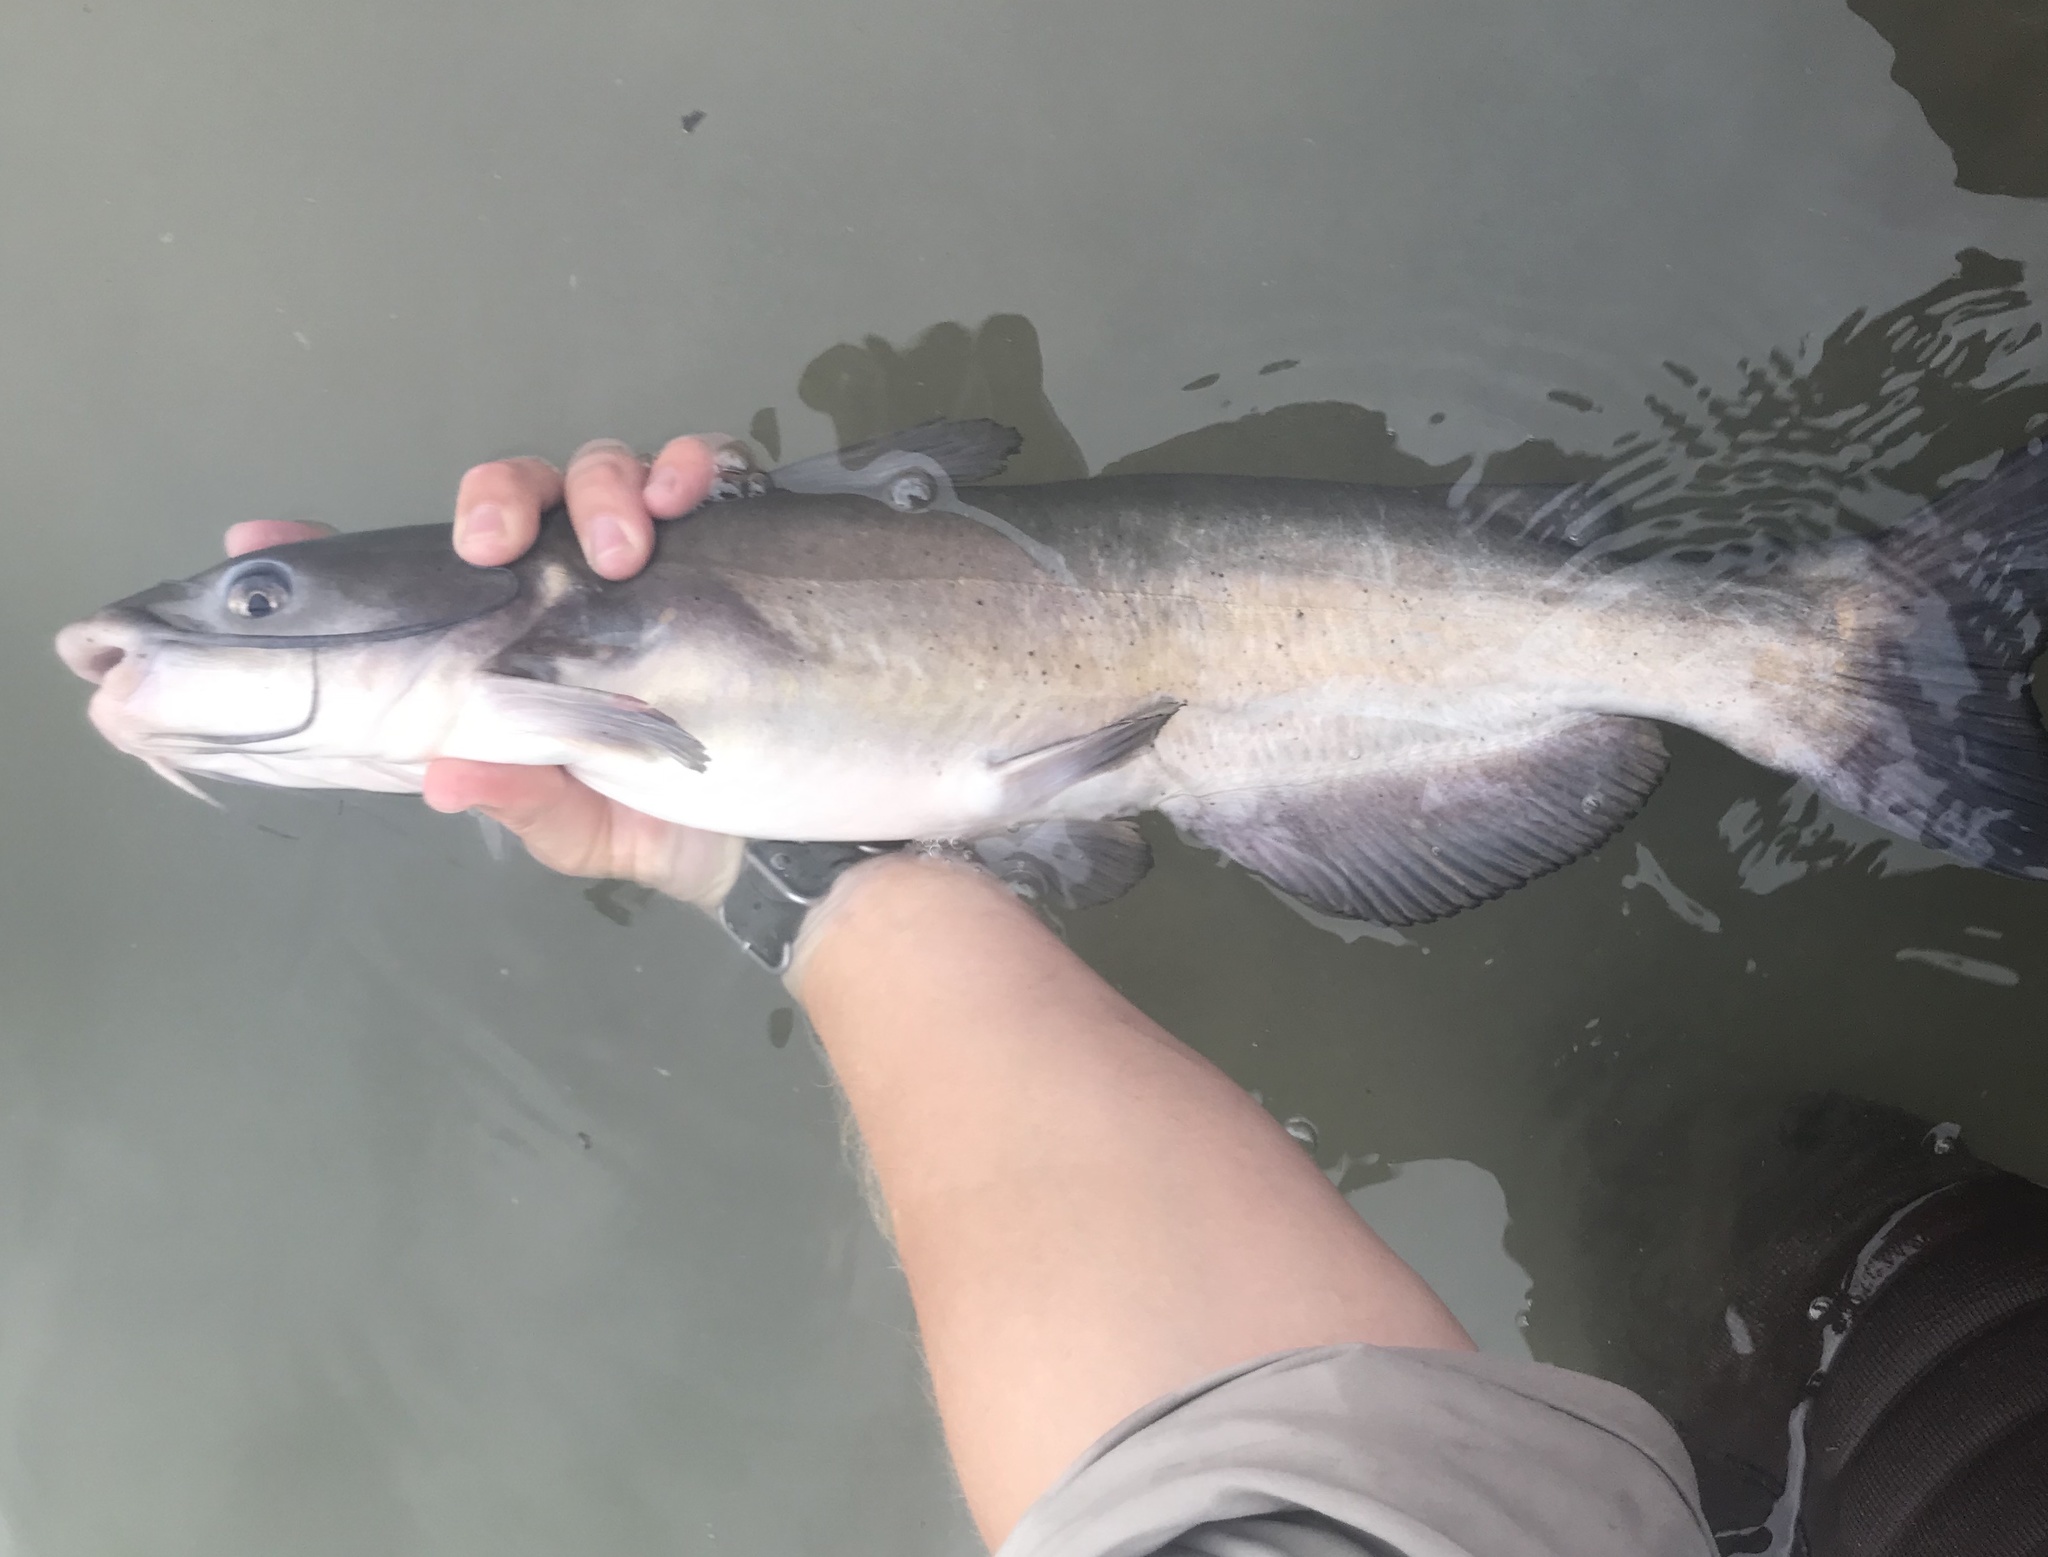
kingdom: Animalia
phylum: Chordata
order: Siluriformes
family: Ictaluridae
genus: Ictalurus
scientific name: Ictalurus punctatus
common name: Channel catfish
